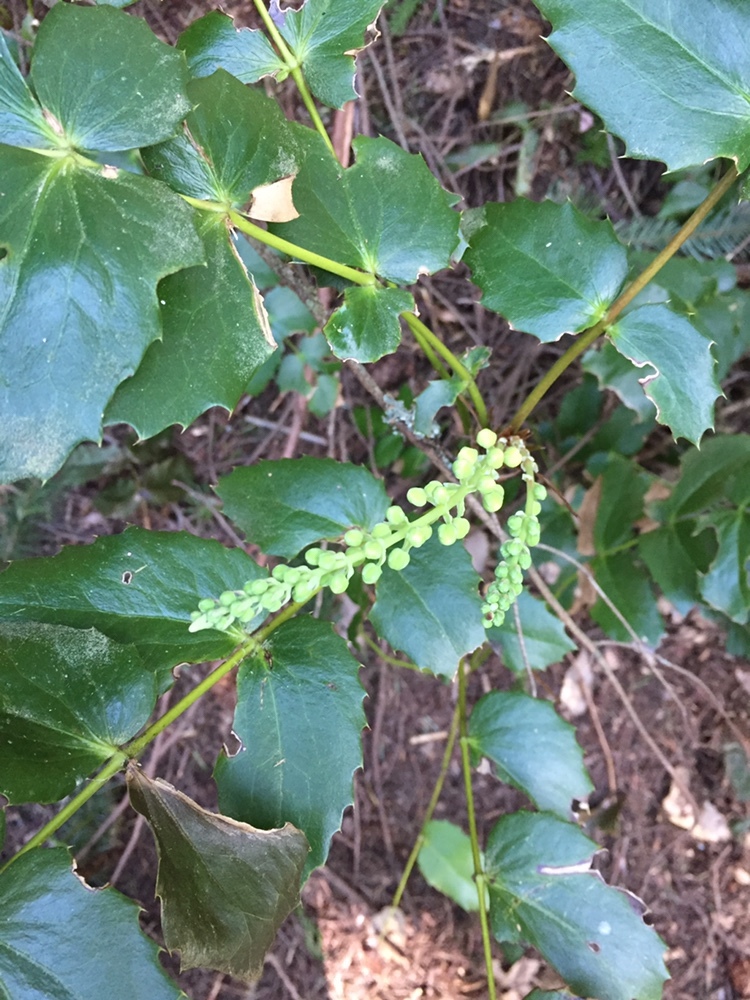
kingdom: Plantae
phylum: Tracheophyta
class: Magnoliopsida
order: Ranunculales
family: Berberidaceae
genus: Mahonia
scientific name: Mahonia nervosa
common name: Cascade oregon-grape
